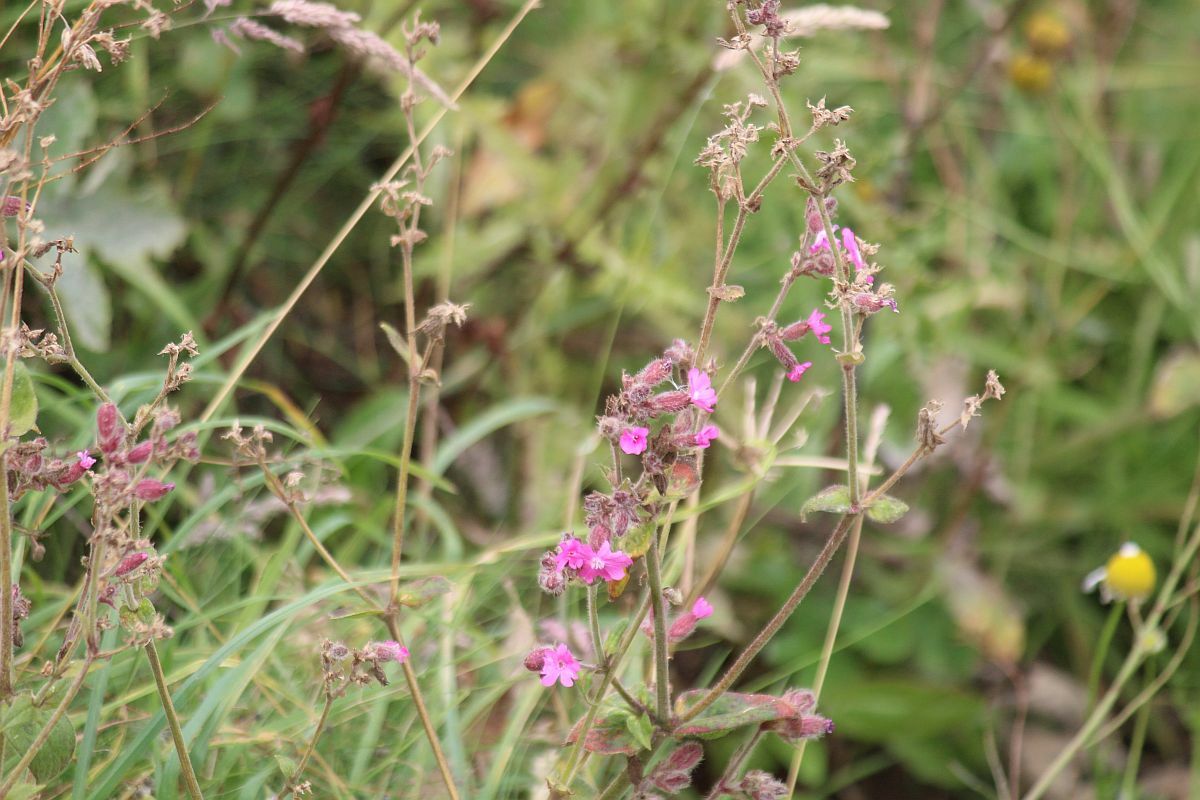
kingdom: Plantae
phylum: Tracheophyta
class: Magnoliopsida
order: Caryophyllales
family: Caryophyllaceae
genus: Silene
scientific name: Silene dioica
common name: Red campion
